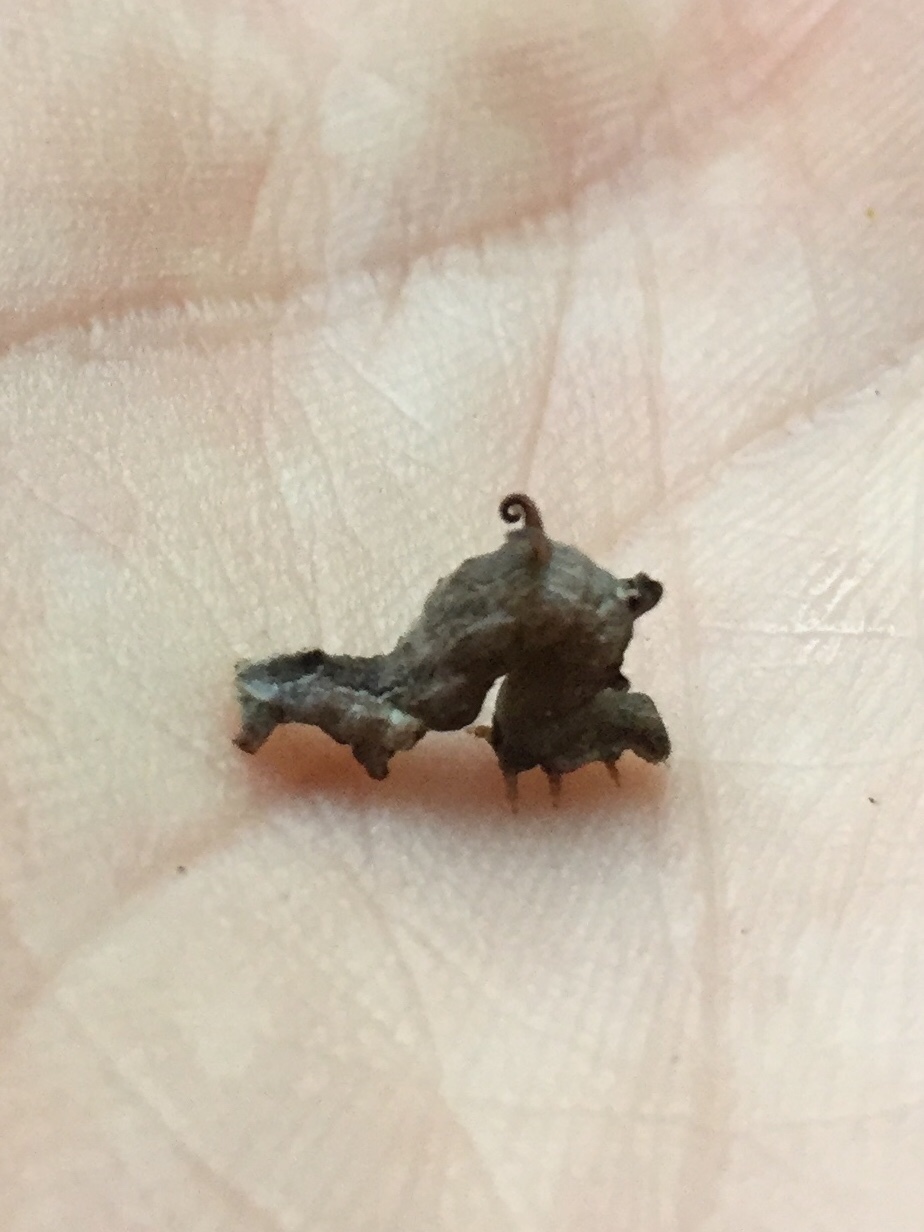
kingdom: Animalia
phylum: Arthropoda
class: Insecta
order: Lepidoptera
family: Geometridae
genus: Nematocampa
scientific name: Nematocampa resistaria
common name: Horned spanworm moth
